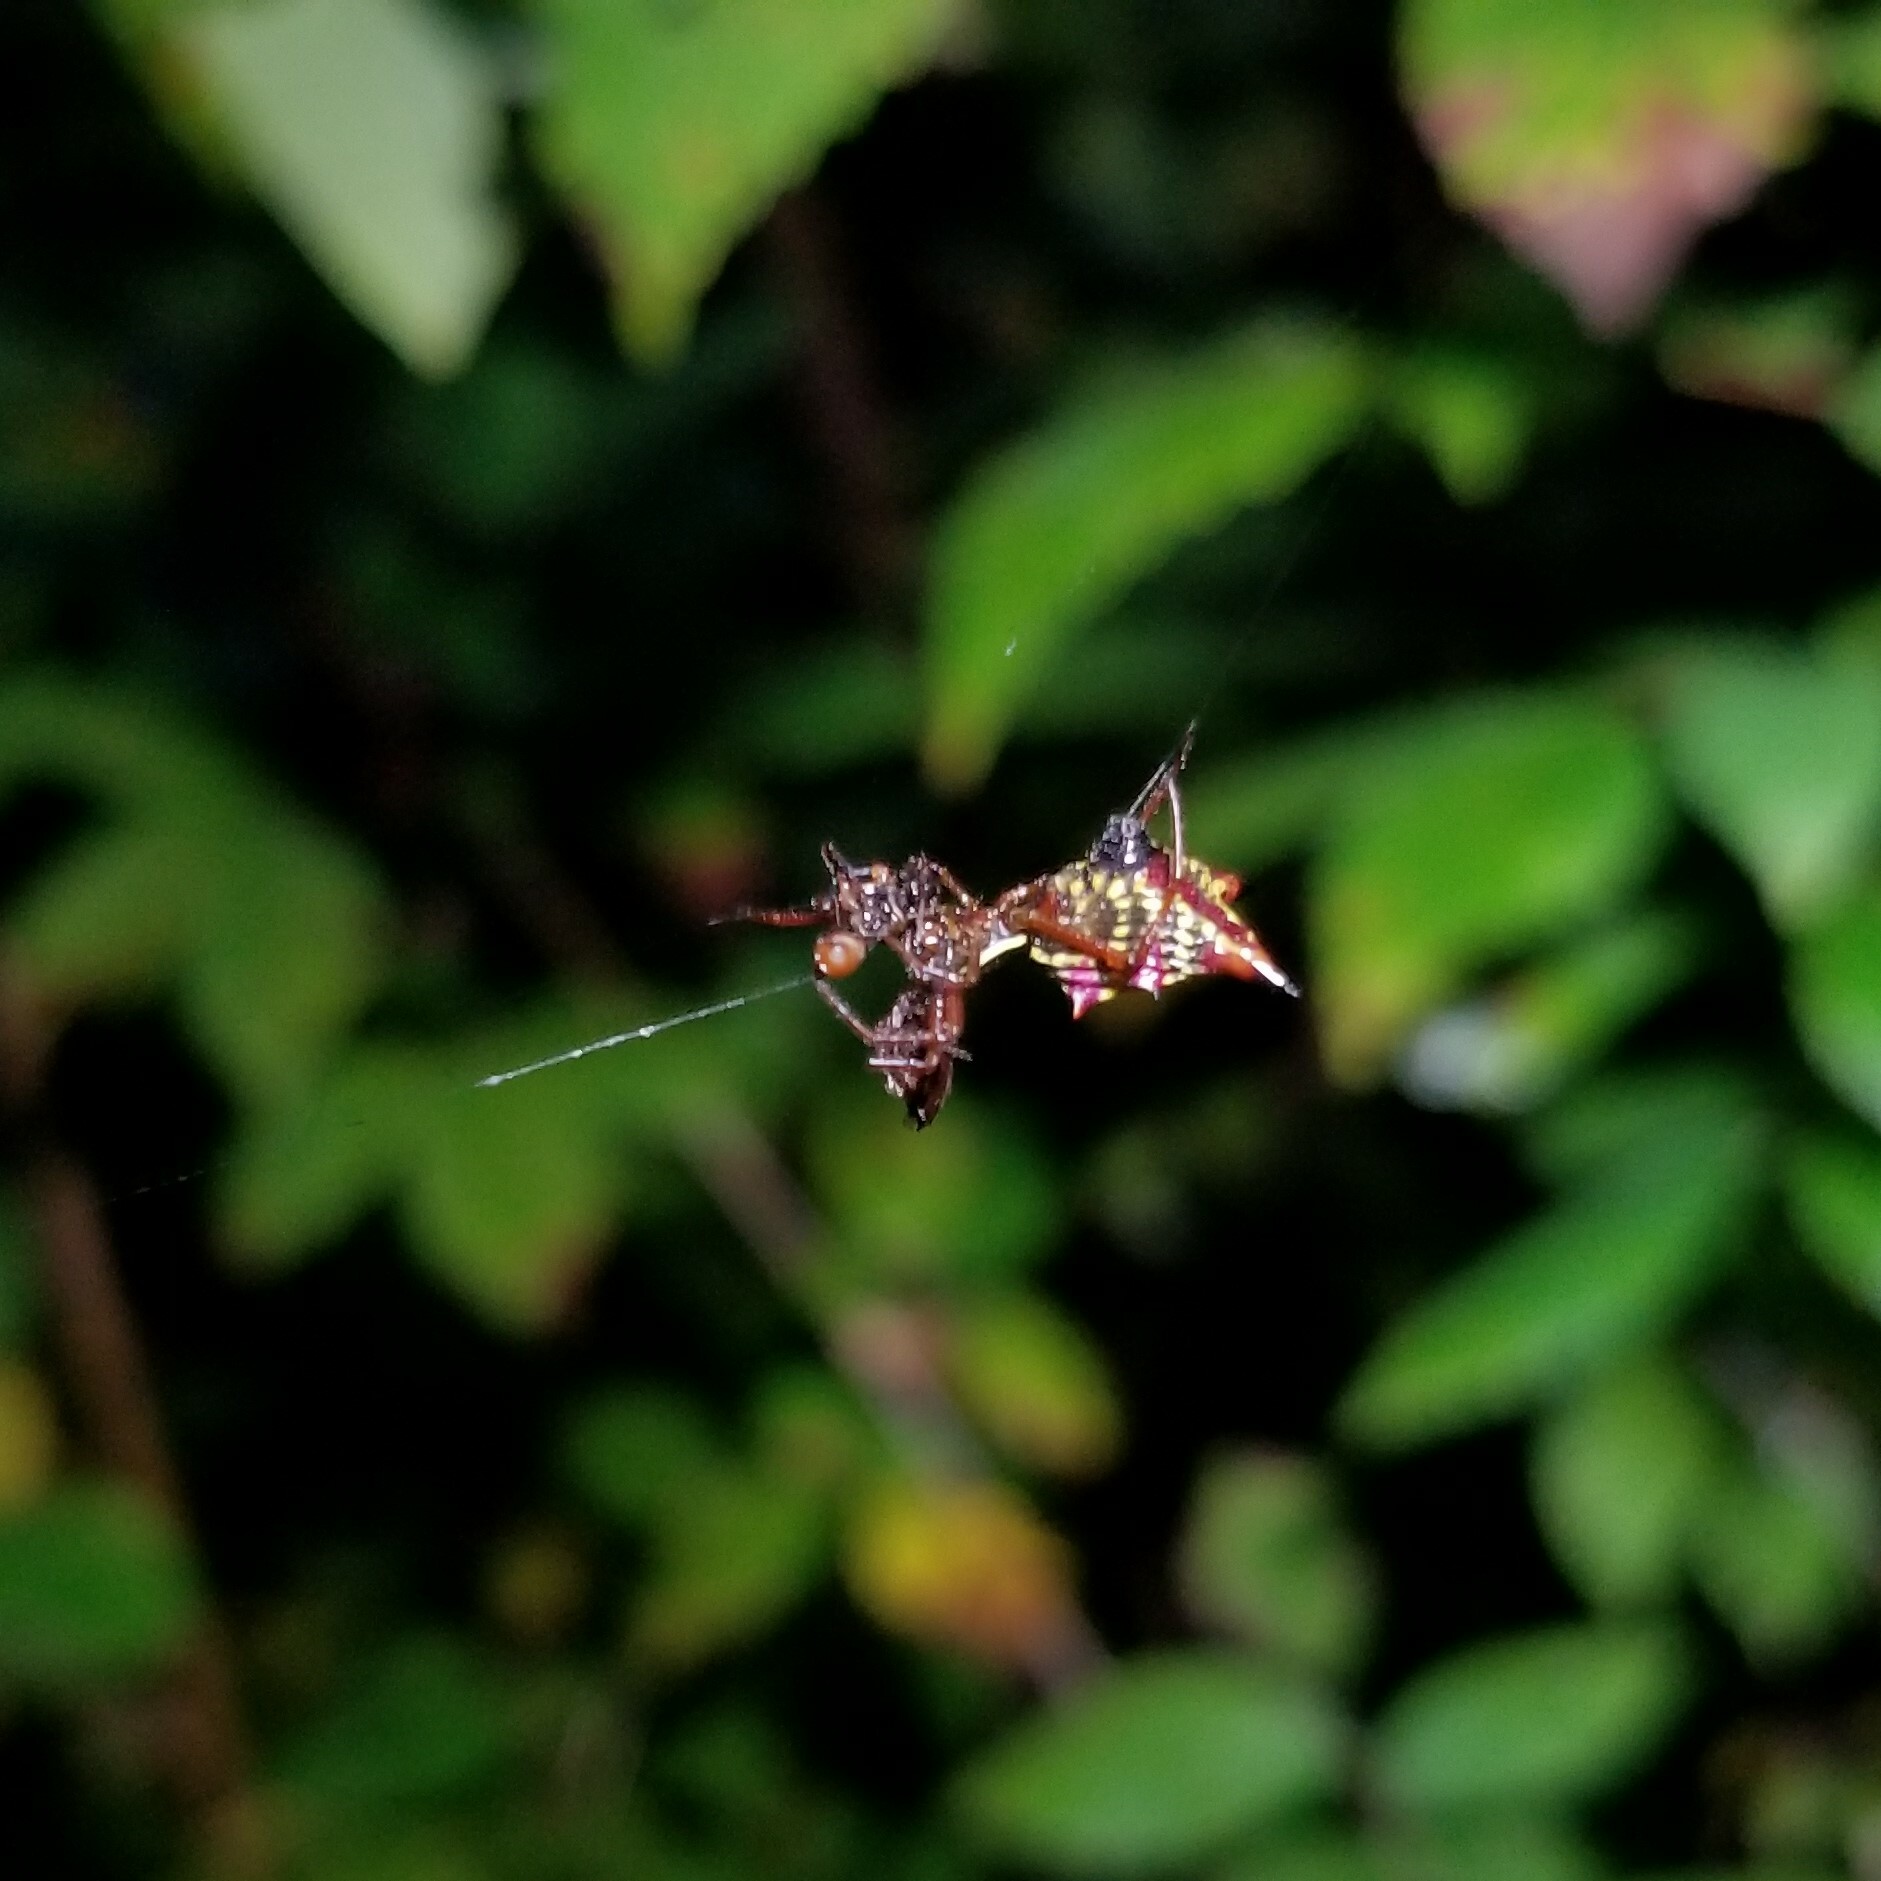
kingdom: Animalia
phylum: Arthropoda
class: Arachnida
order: Araneae
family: Araneidae
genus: Micrathena
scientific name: Micrathena sagittata
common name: Orb weavers
